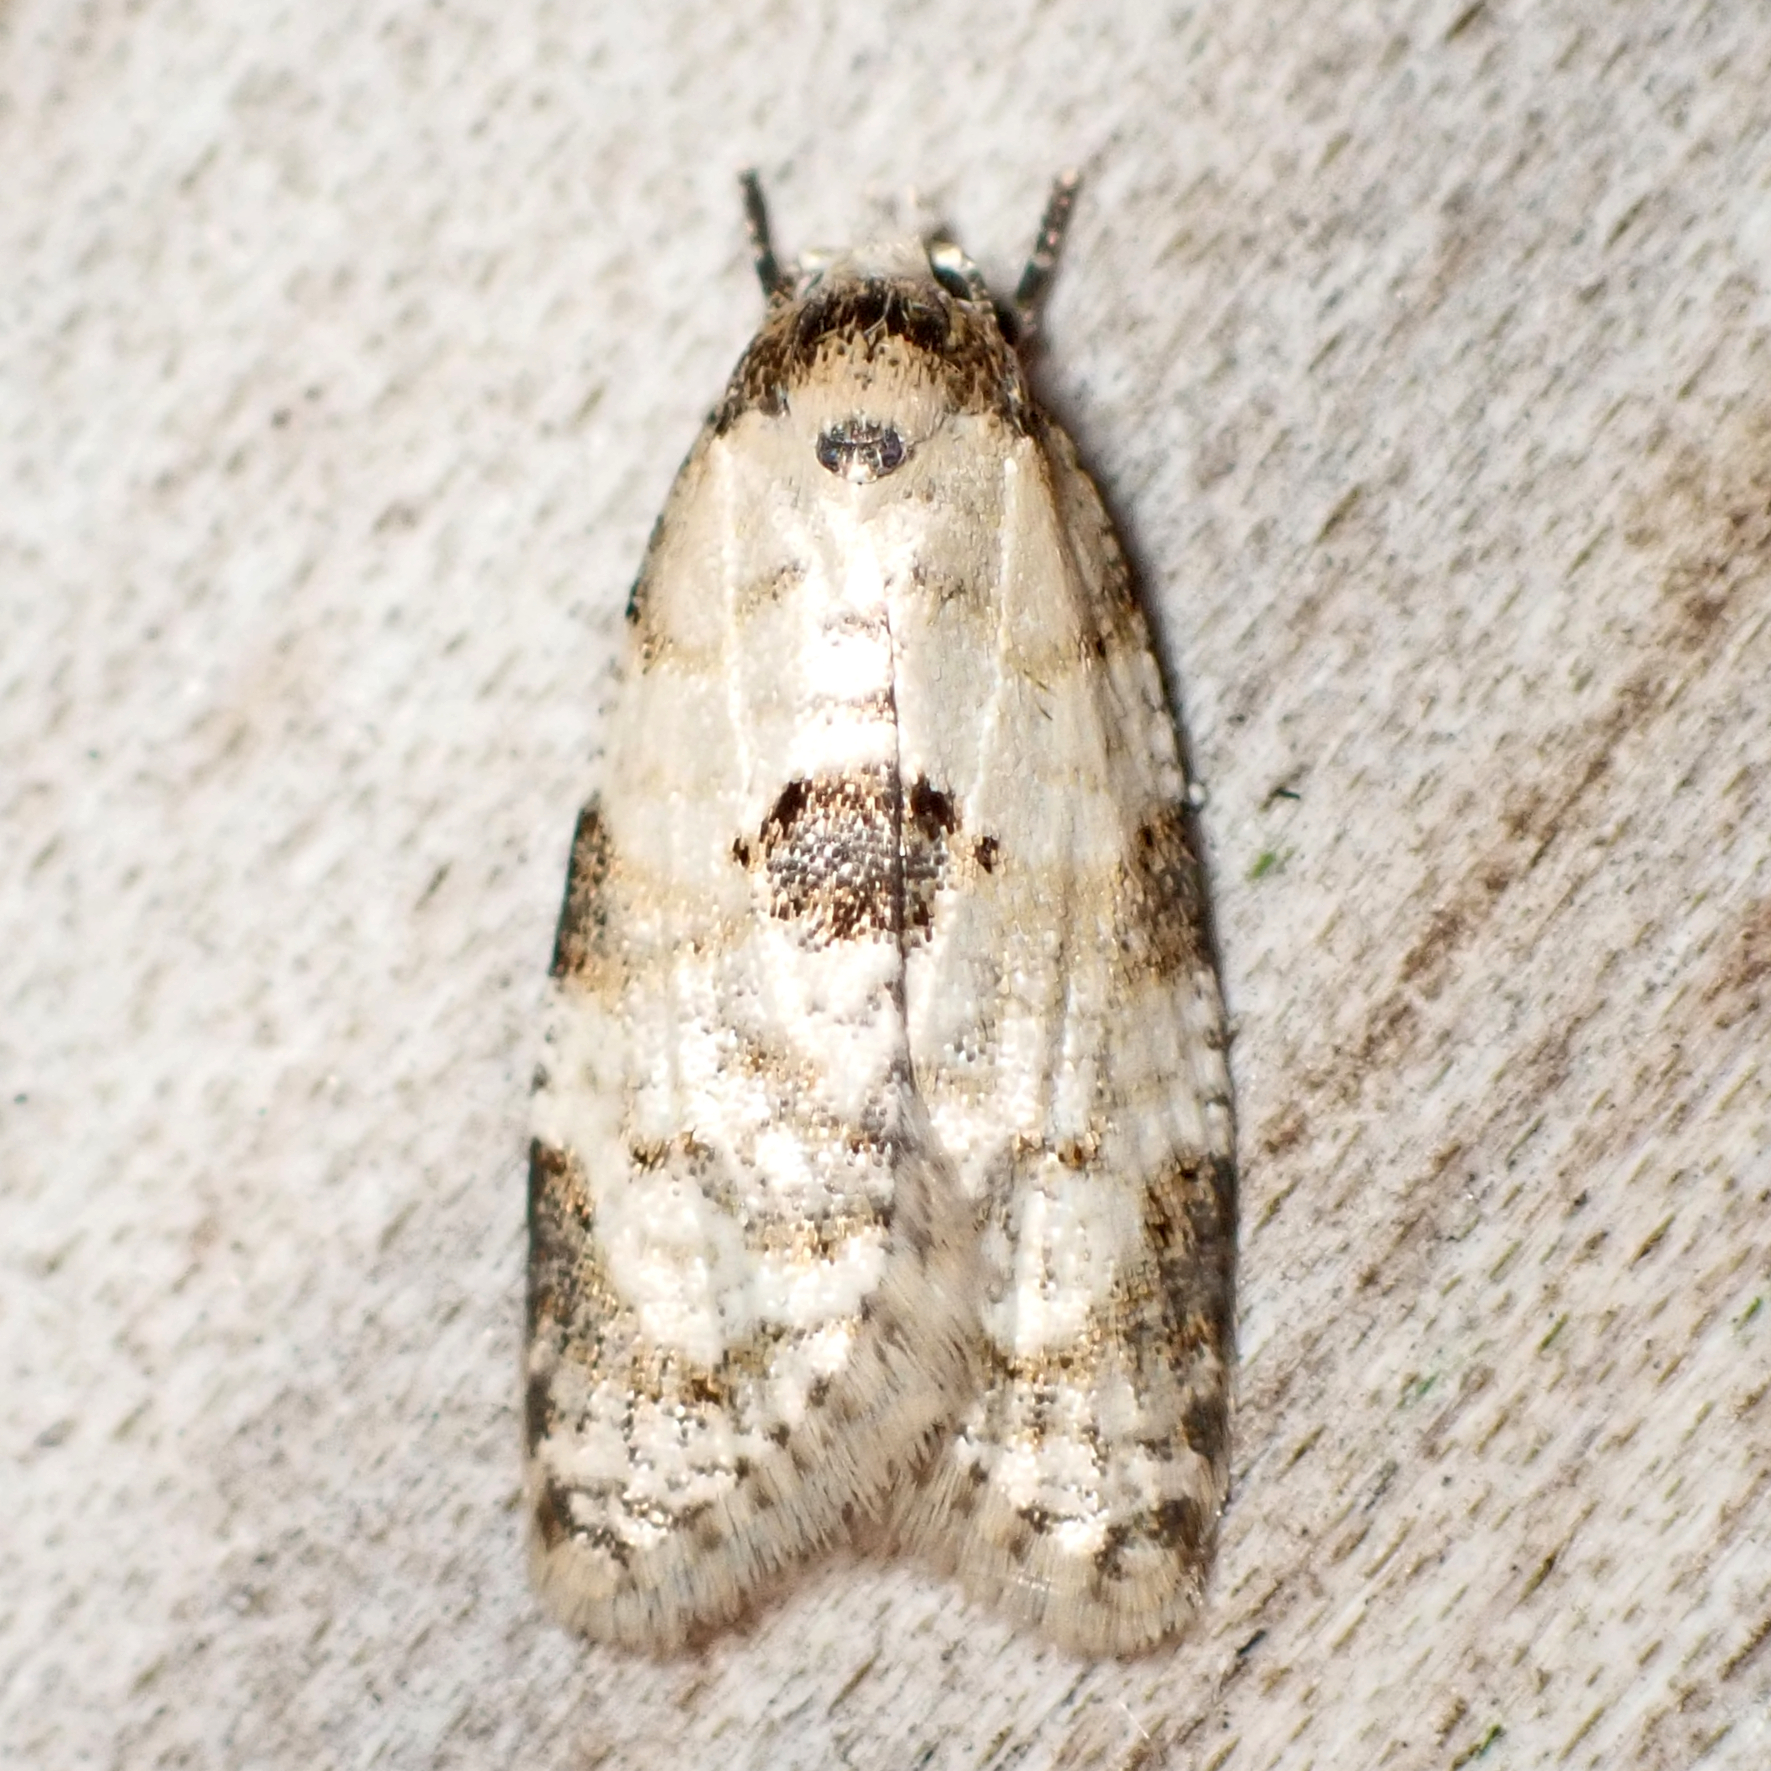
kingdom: Animalia
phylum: Arthropoda
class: Insecta
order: Lepidoptera
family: Tortricidae
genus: Dipterina
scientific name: Dipterina imbriferana
